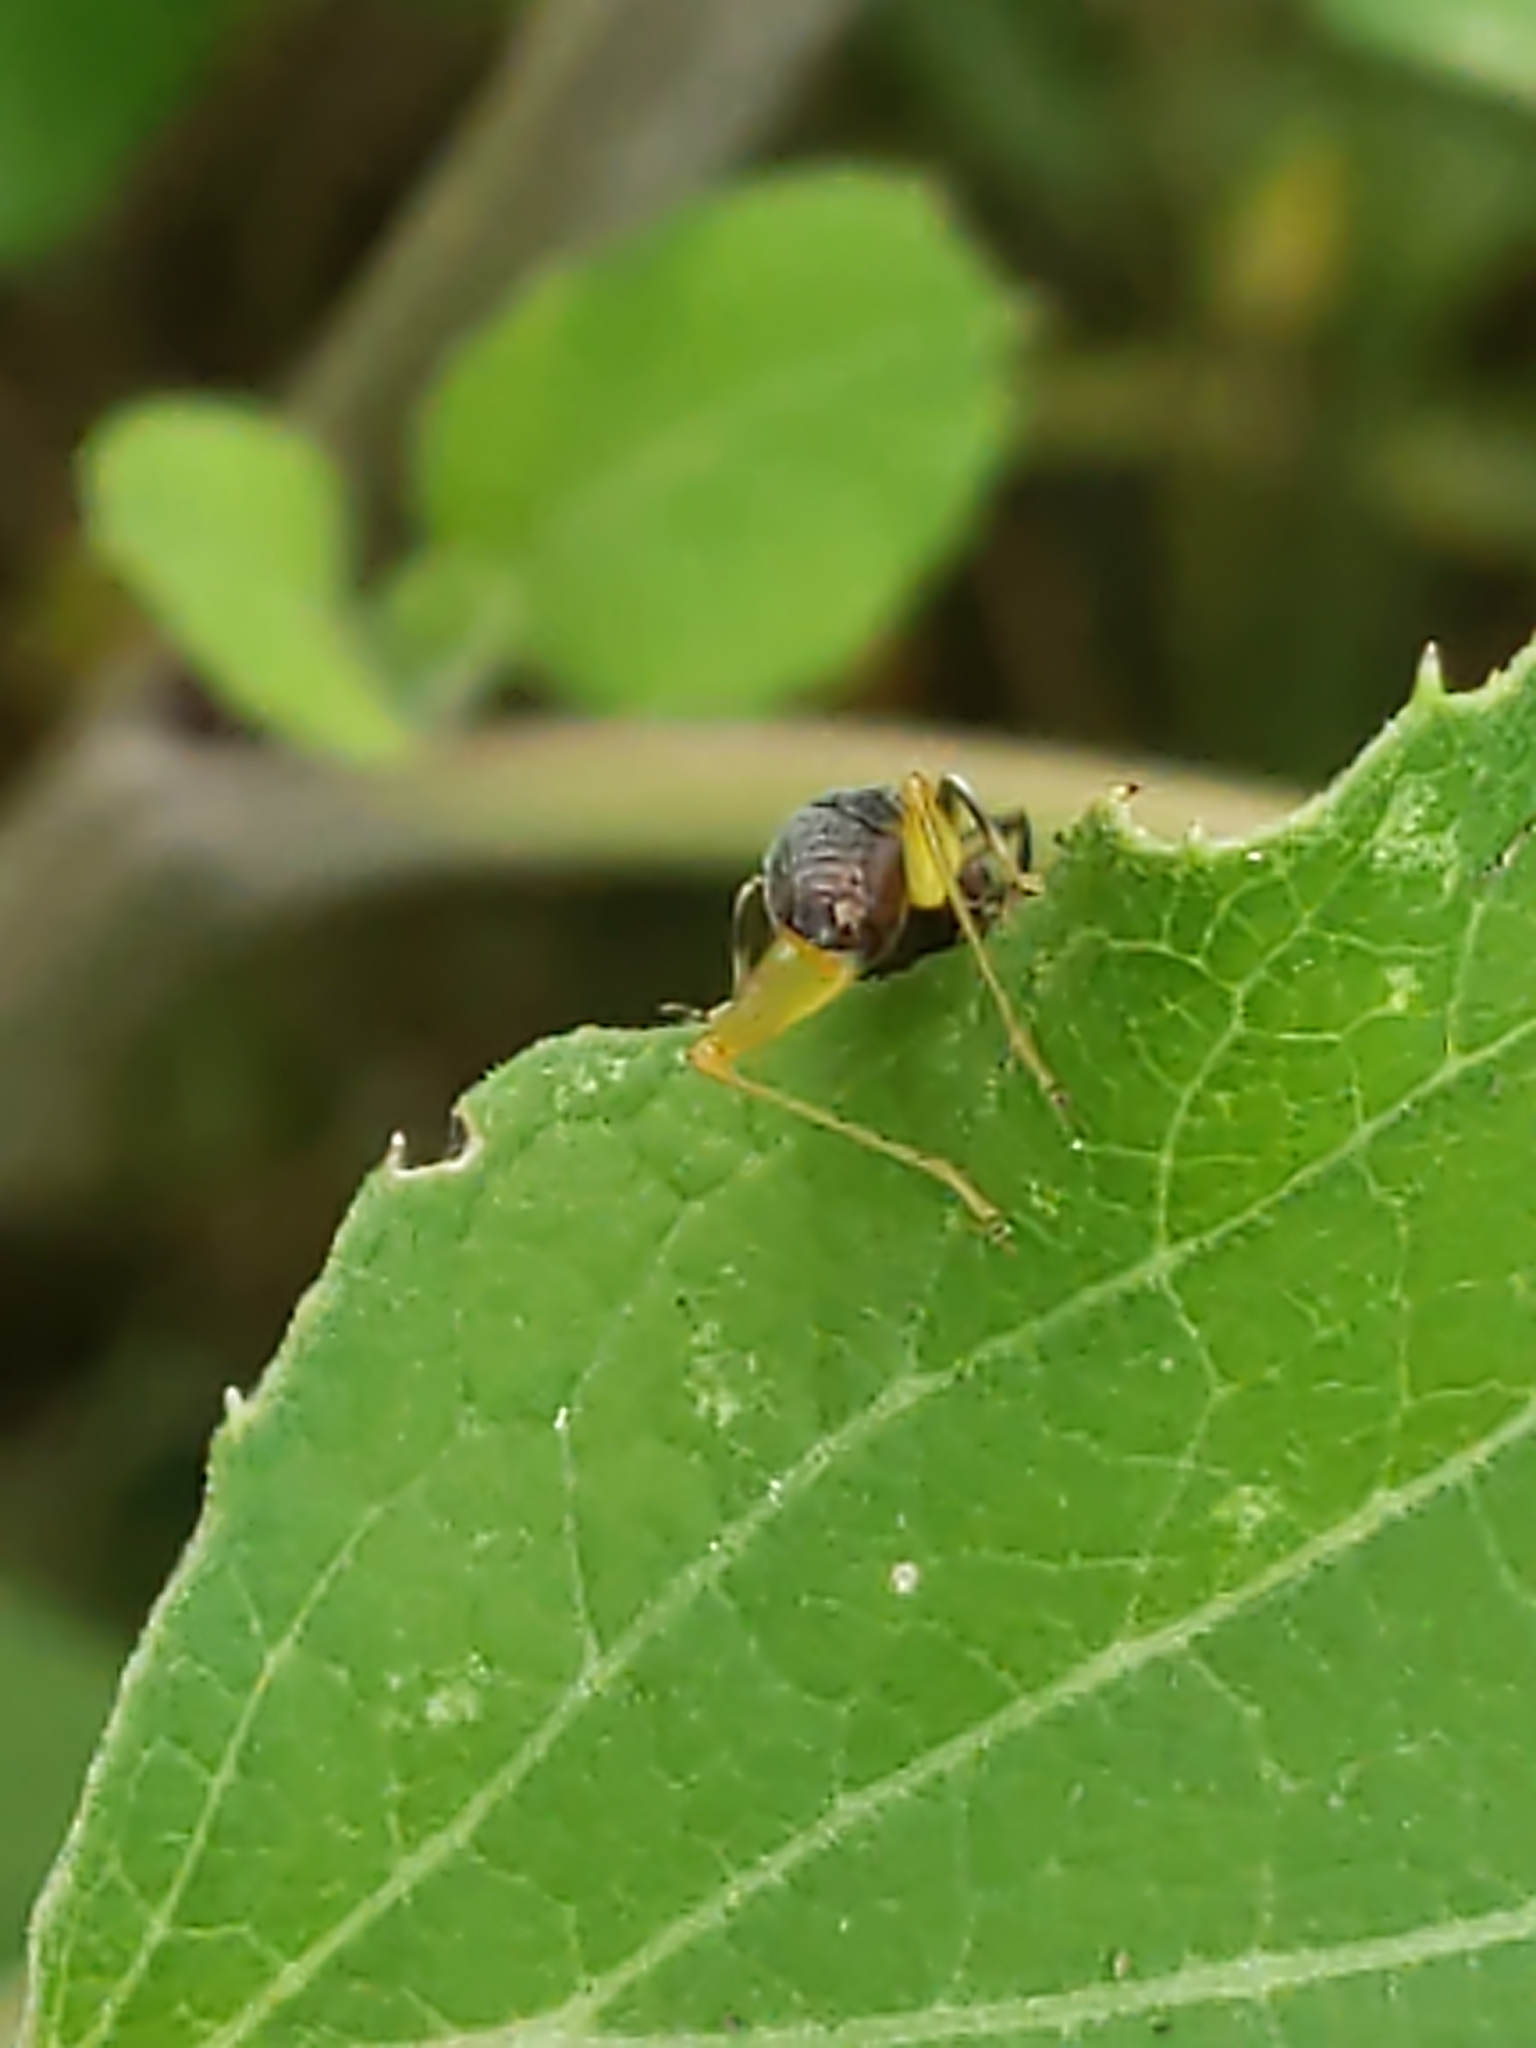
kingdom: Animalia
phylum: Arthropoda
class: Insecta
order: Orthoptera
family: Trigonidiidae
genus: Phyllopalpus
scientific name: Phyllopalpus pulchellus
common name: Handsome trig
